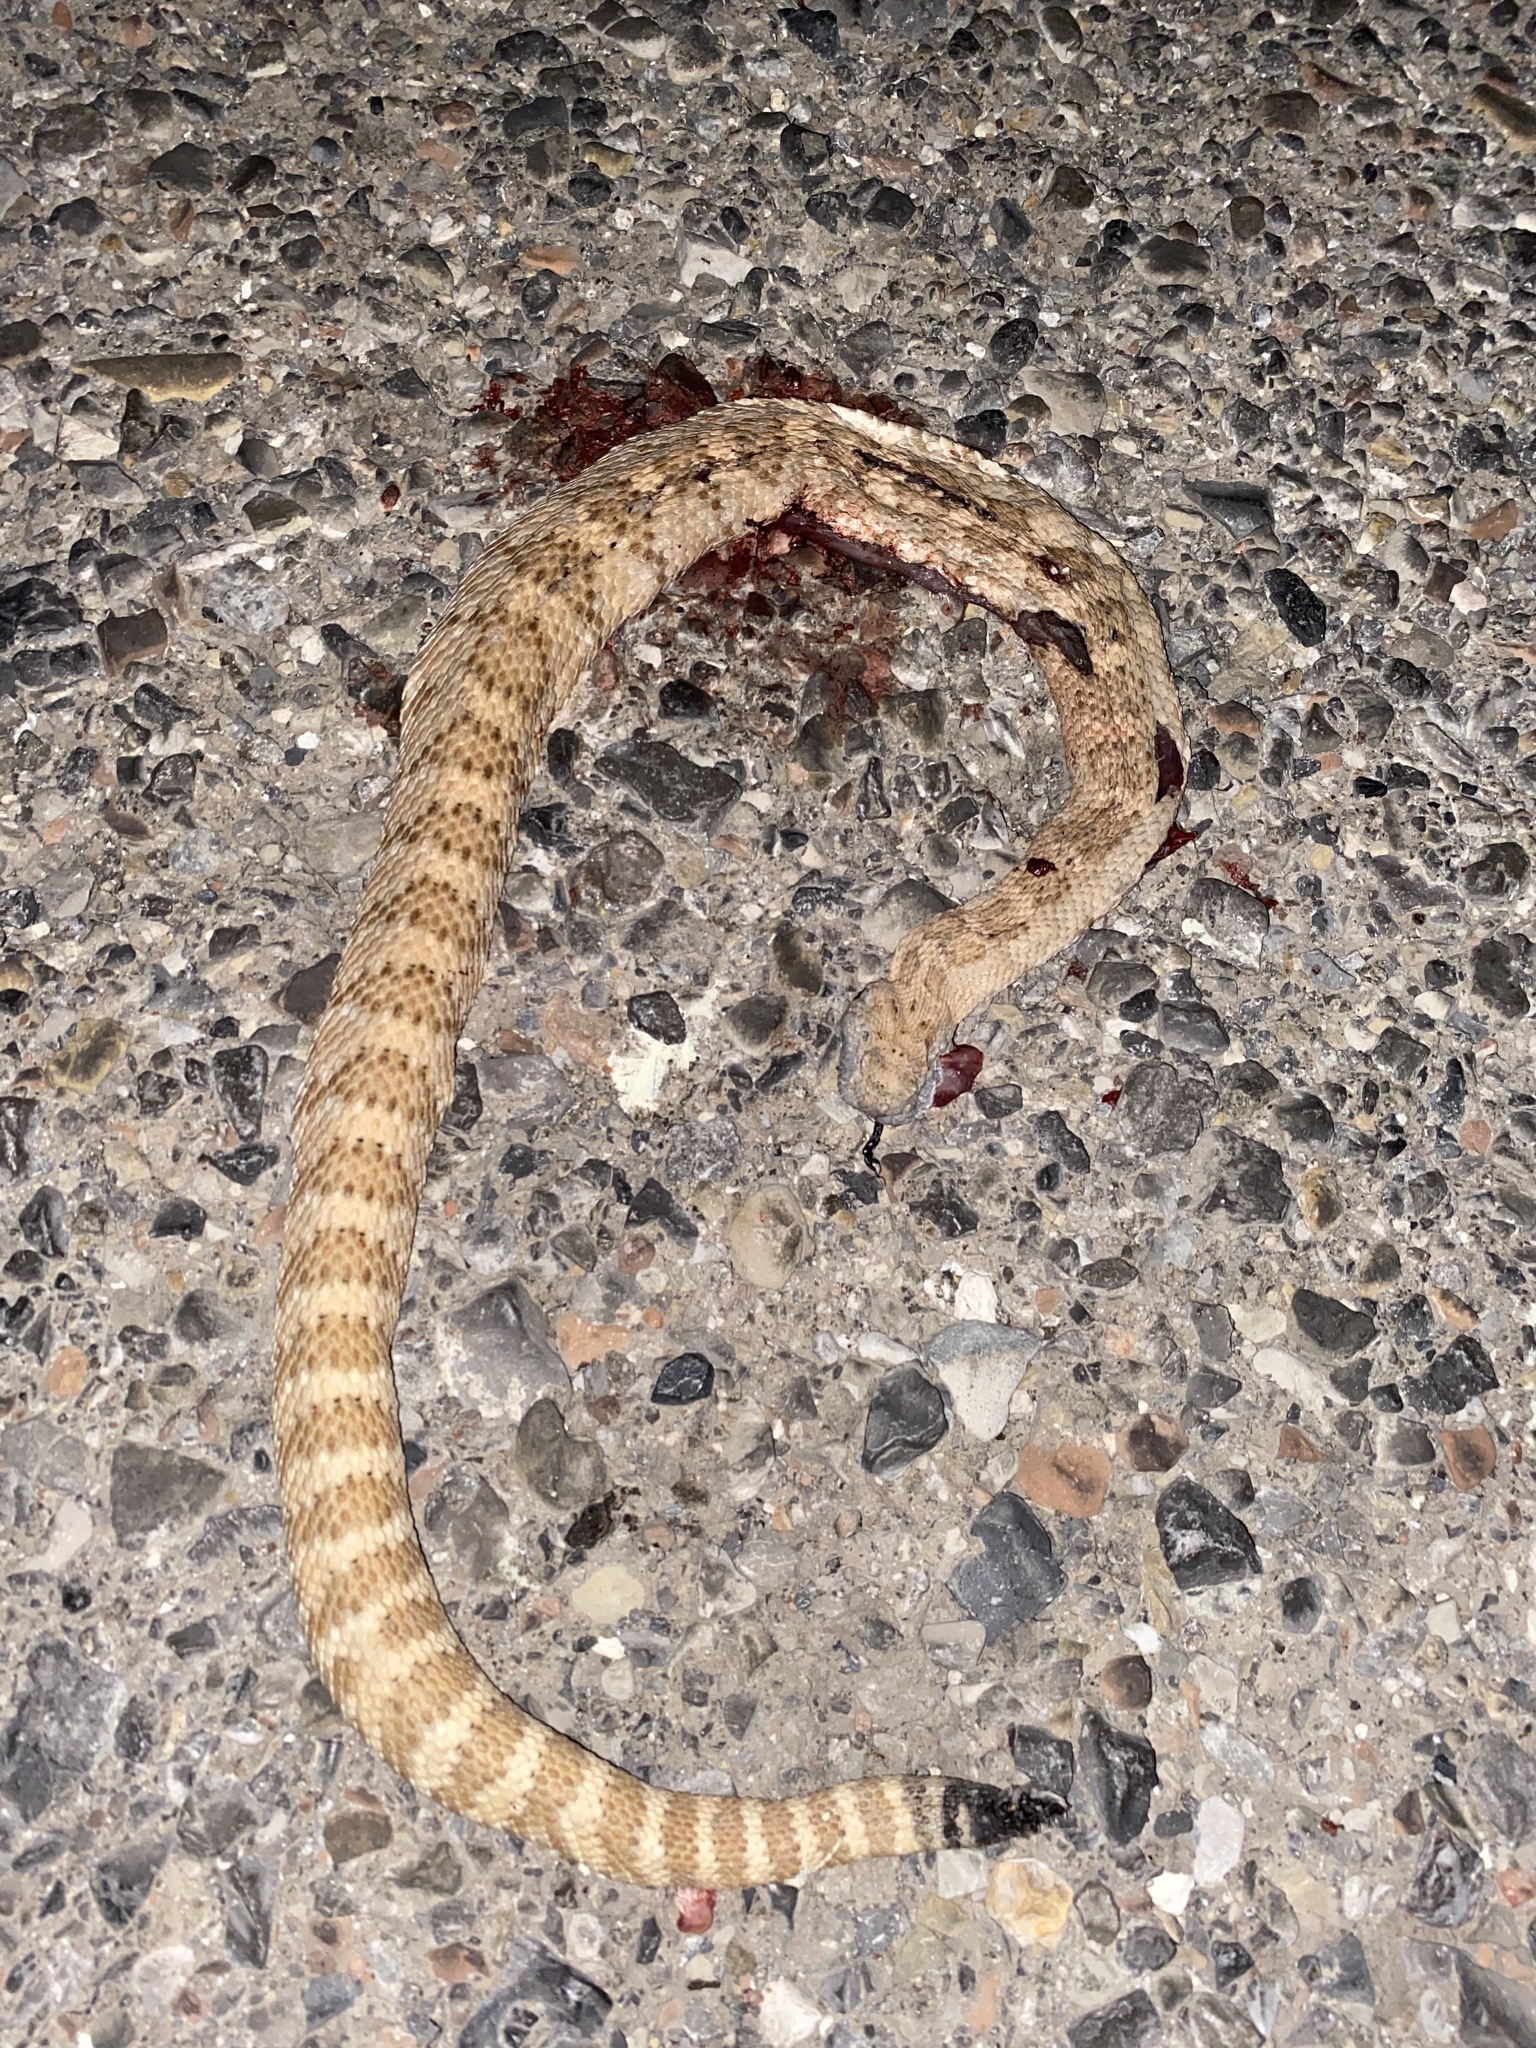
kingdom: Animalia
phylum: Chordata
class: Squamata
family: Viperidae
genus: Crotalus
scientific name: Crotalus stephensi
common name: Panamint rattlesnake
